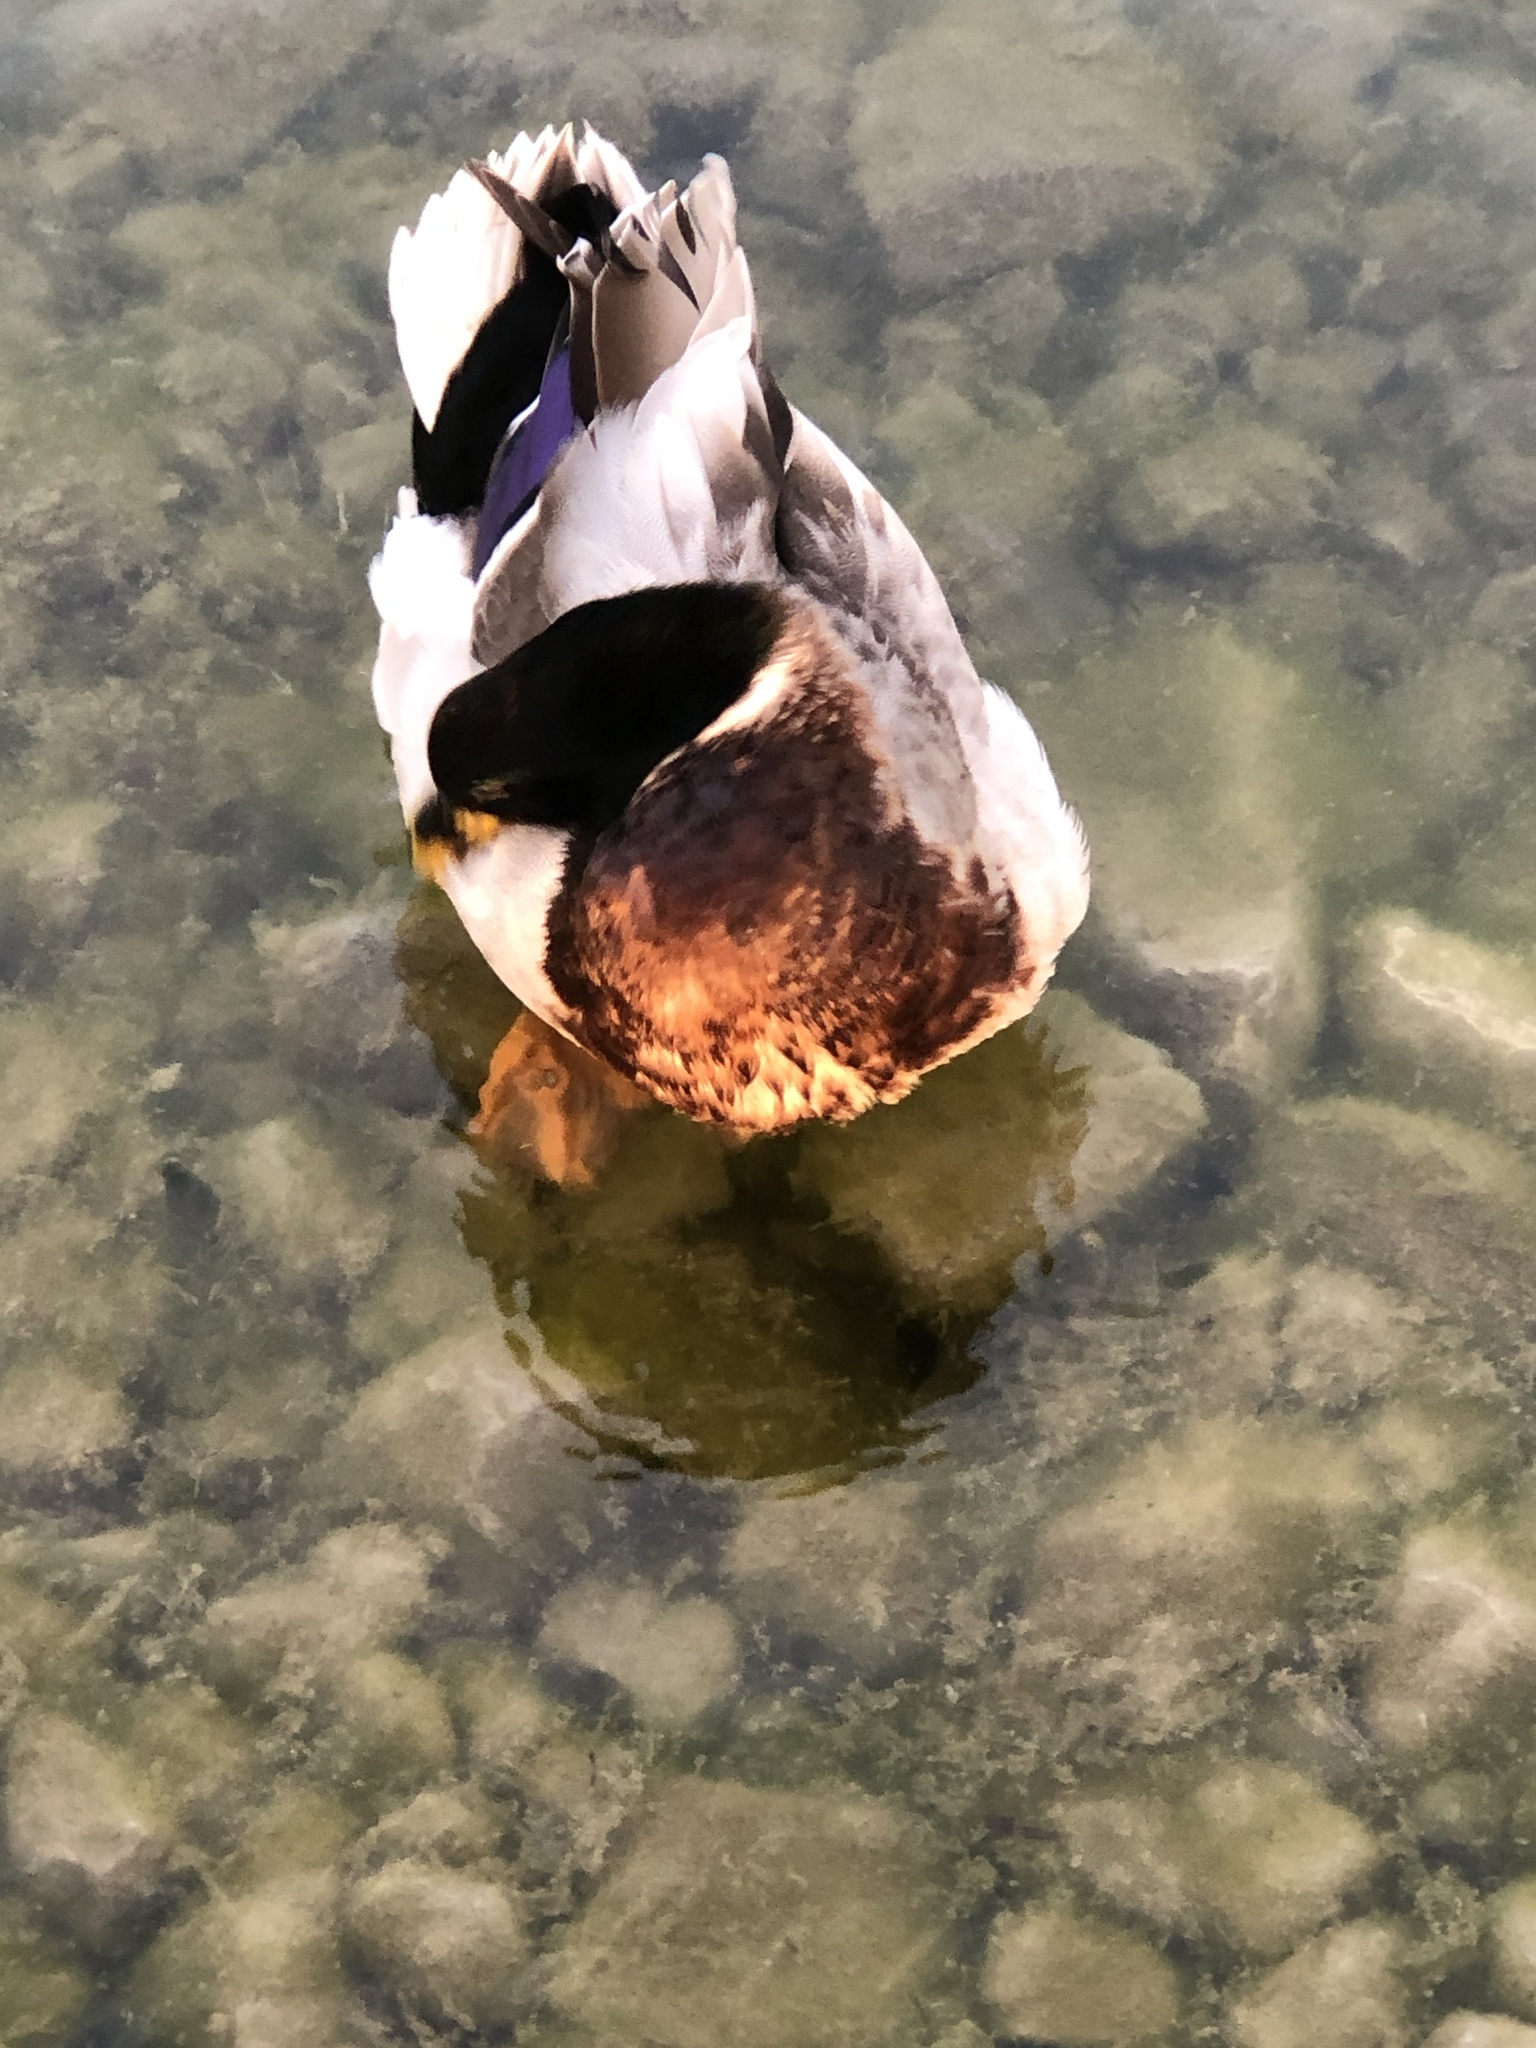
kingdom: Animalia
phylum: Chordata
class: Aves
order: Anseriformes
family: Anatidae
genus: Anas
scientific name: Anas platyrhynchos
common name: Mallard
